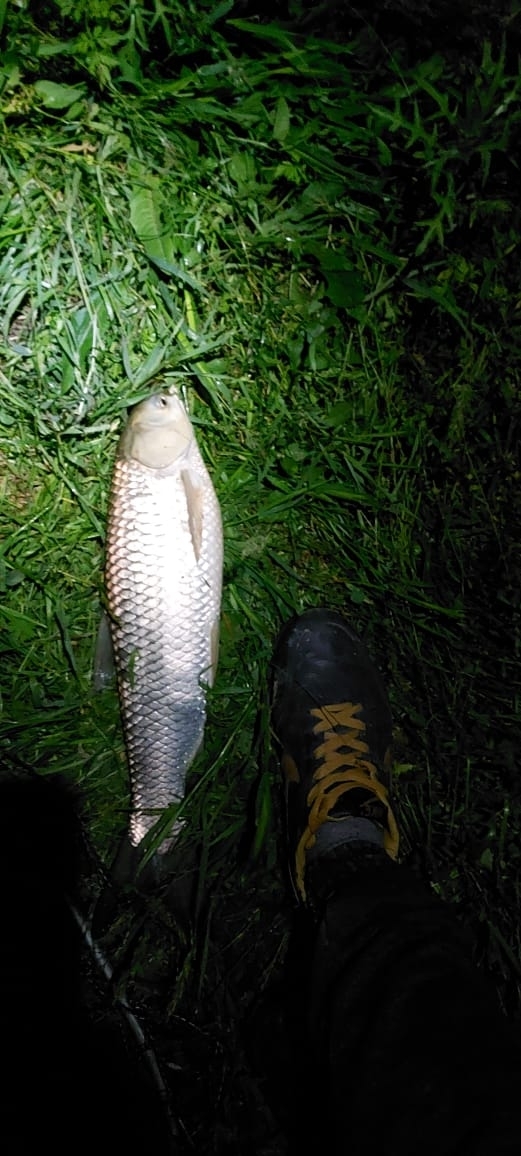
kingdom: Animalia
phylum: Chordata
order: Cypriniformes
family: Cyprinidae
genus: Ctenopharyngodon
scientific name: Ctenopharyngodon idella
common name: Grass carp
